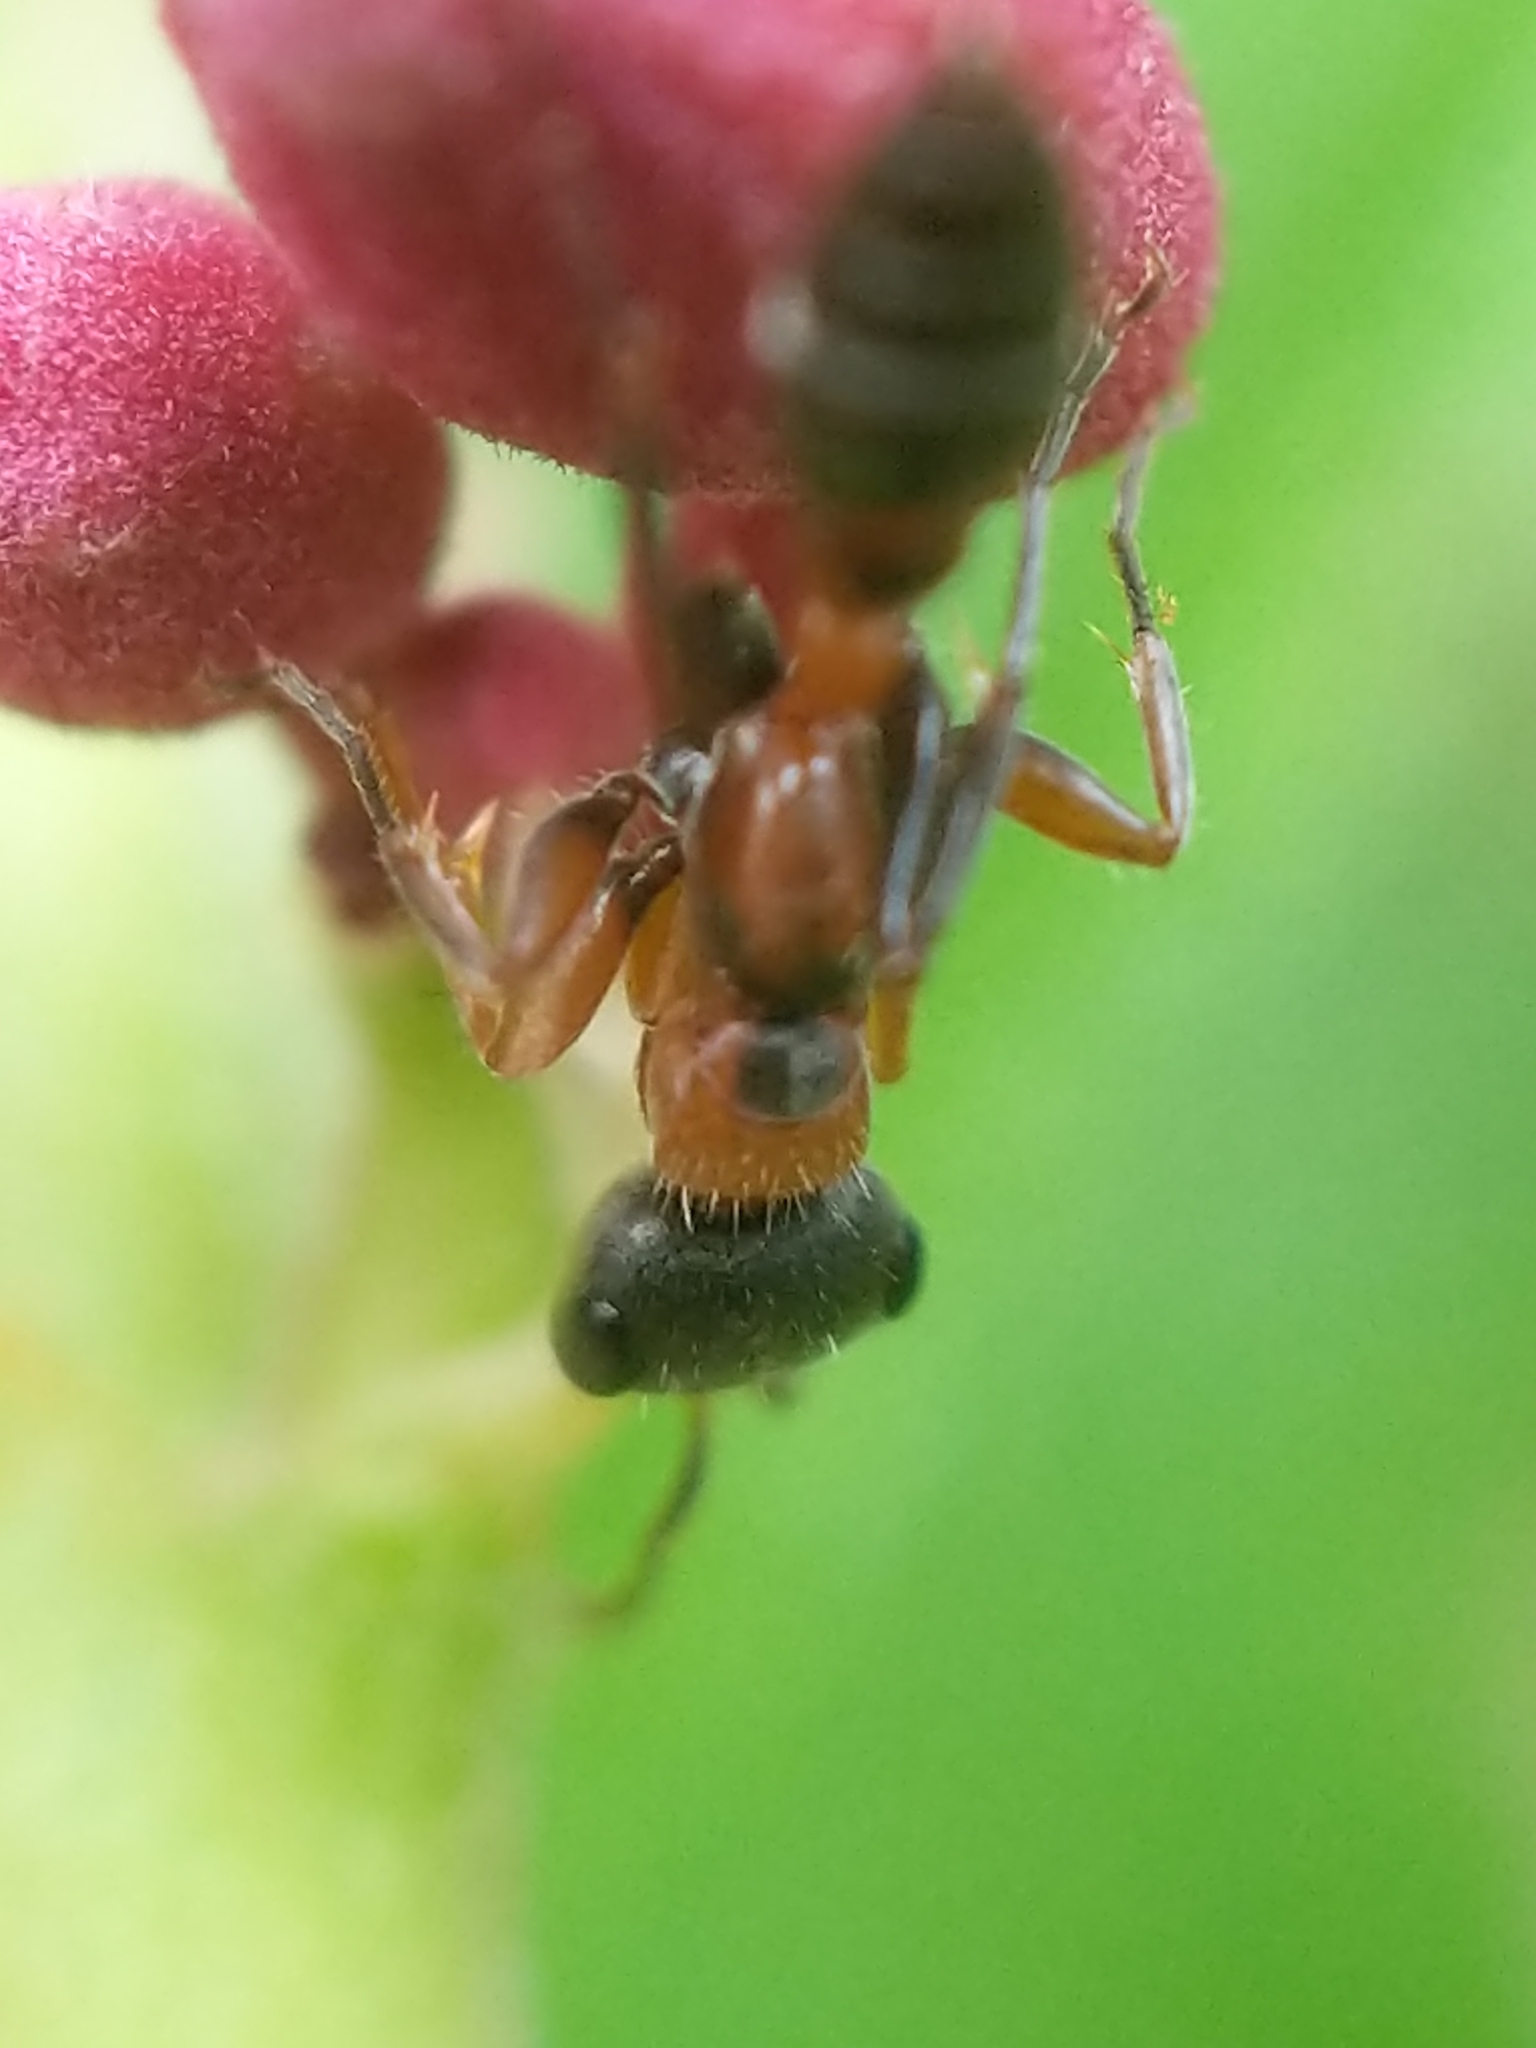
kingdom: Animalia
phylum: Arthropoda
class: Insecta
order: Hymenoptera
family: Formicidae
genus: Pseudomyrmex
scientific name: Pseudomyrmex gracilis
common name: Graceful twig ant
